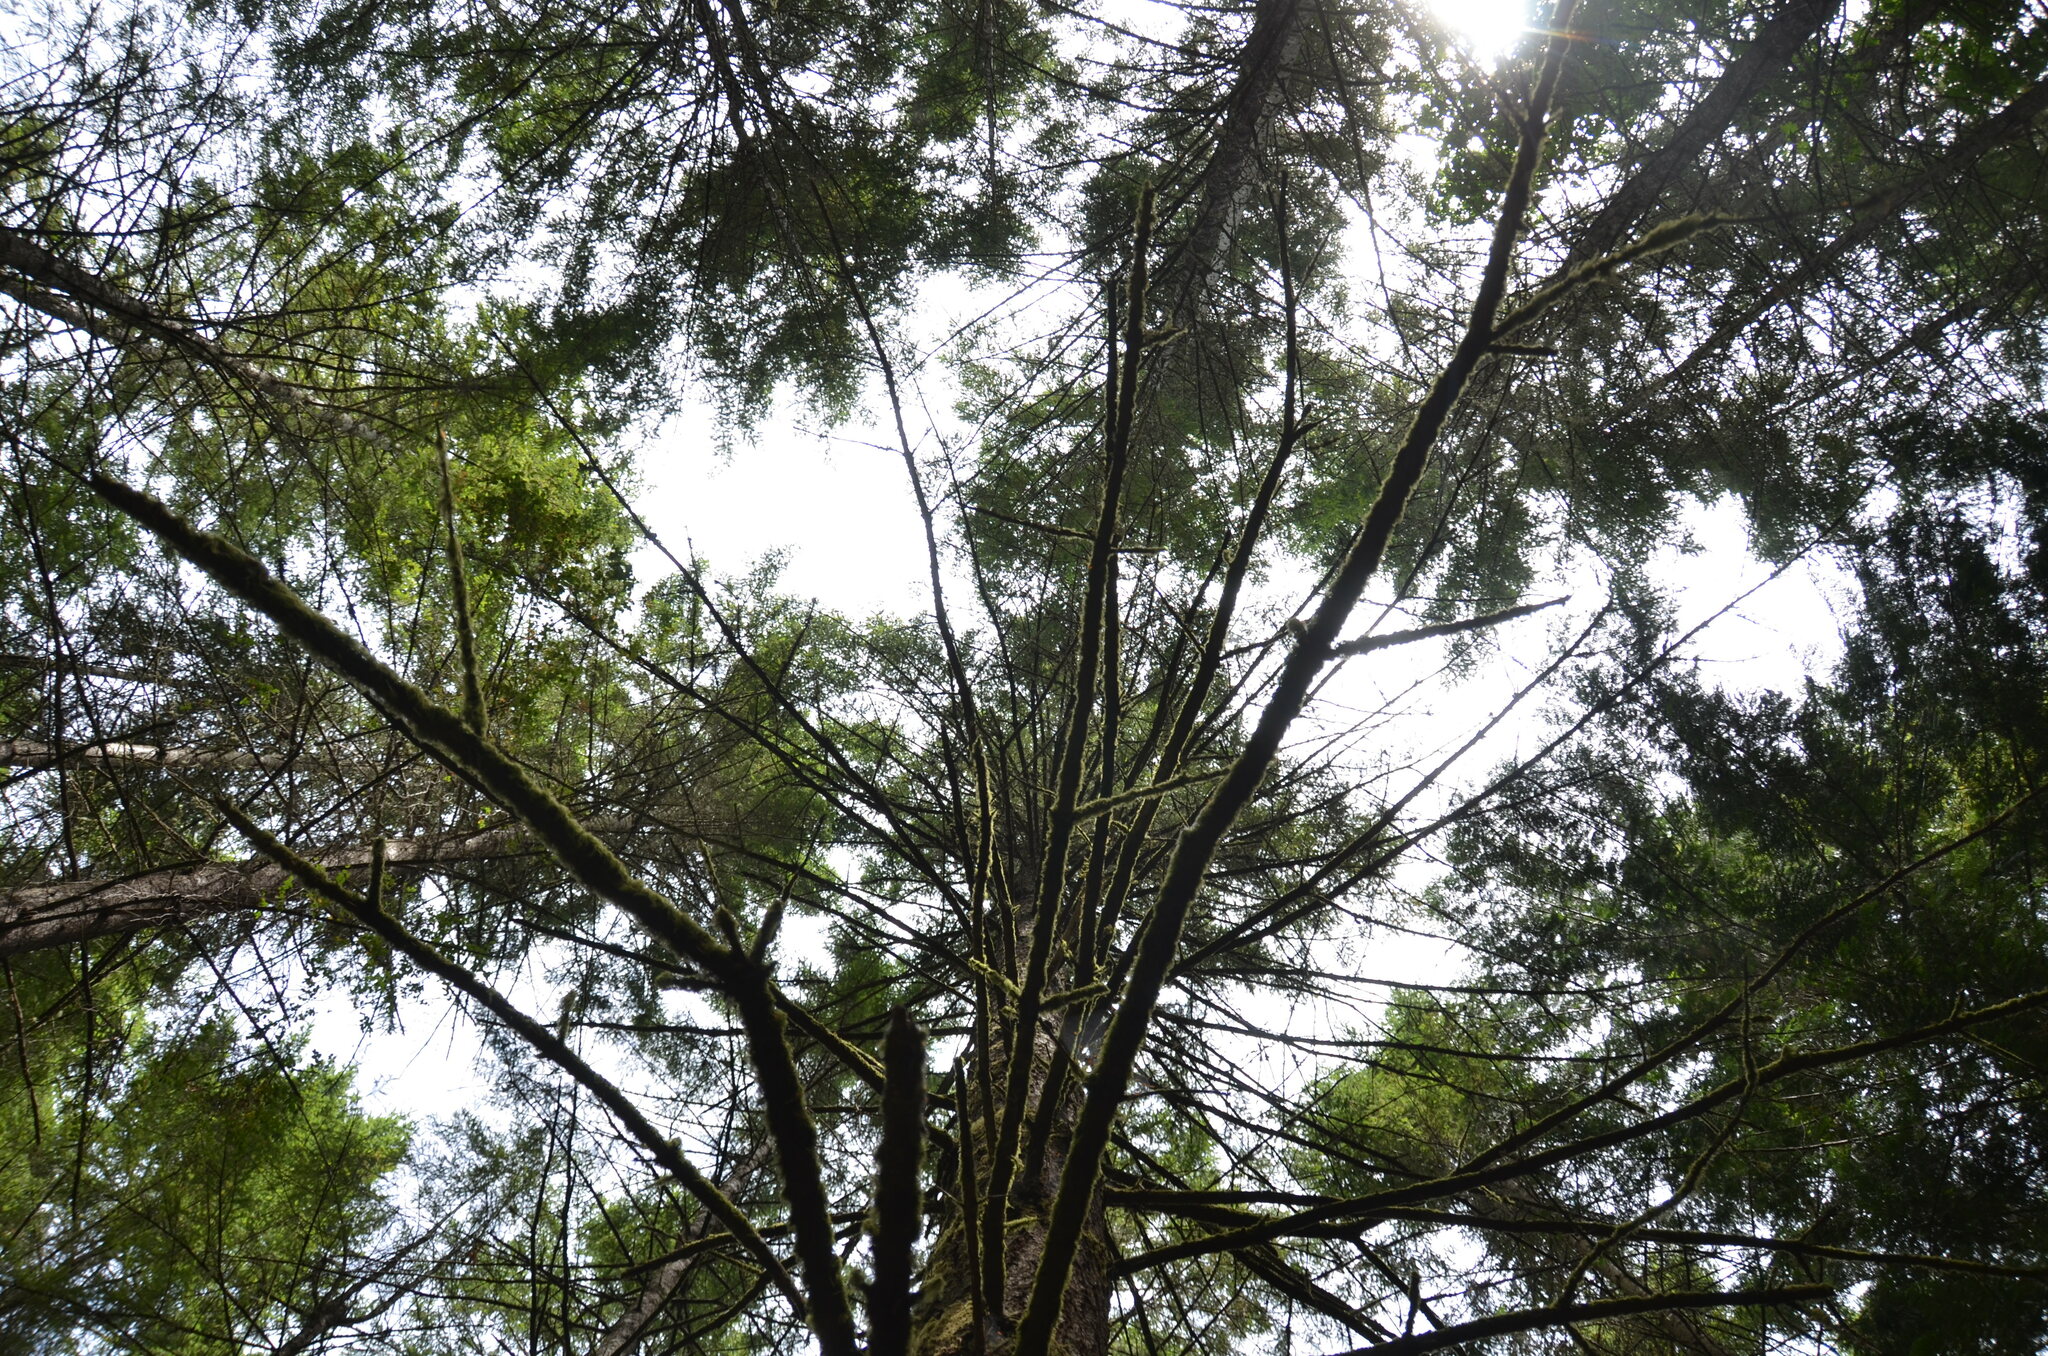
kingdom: Plantae
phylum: Tracheophyta
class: Pinopsida
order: Pinales
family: Pinaceae
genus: Pseudotsuga
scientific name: Pseudotsuga menziesii
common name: Douglas fir
